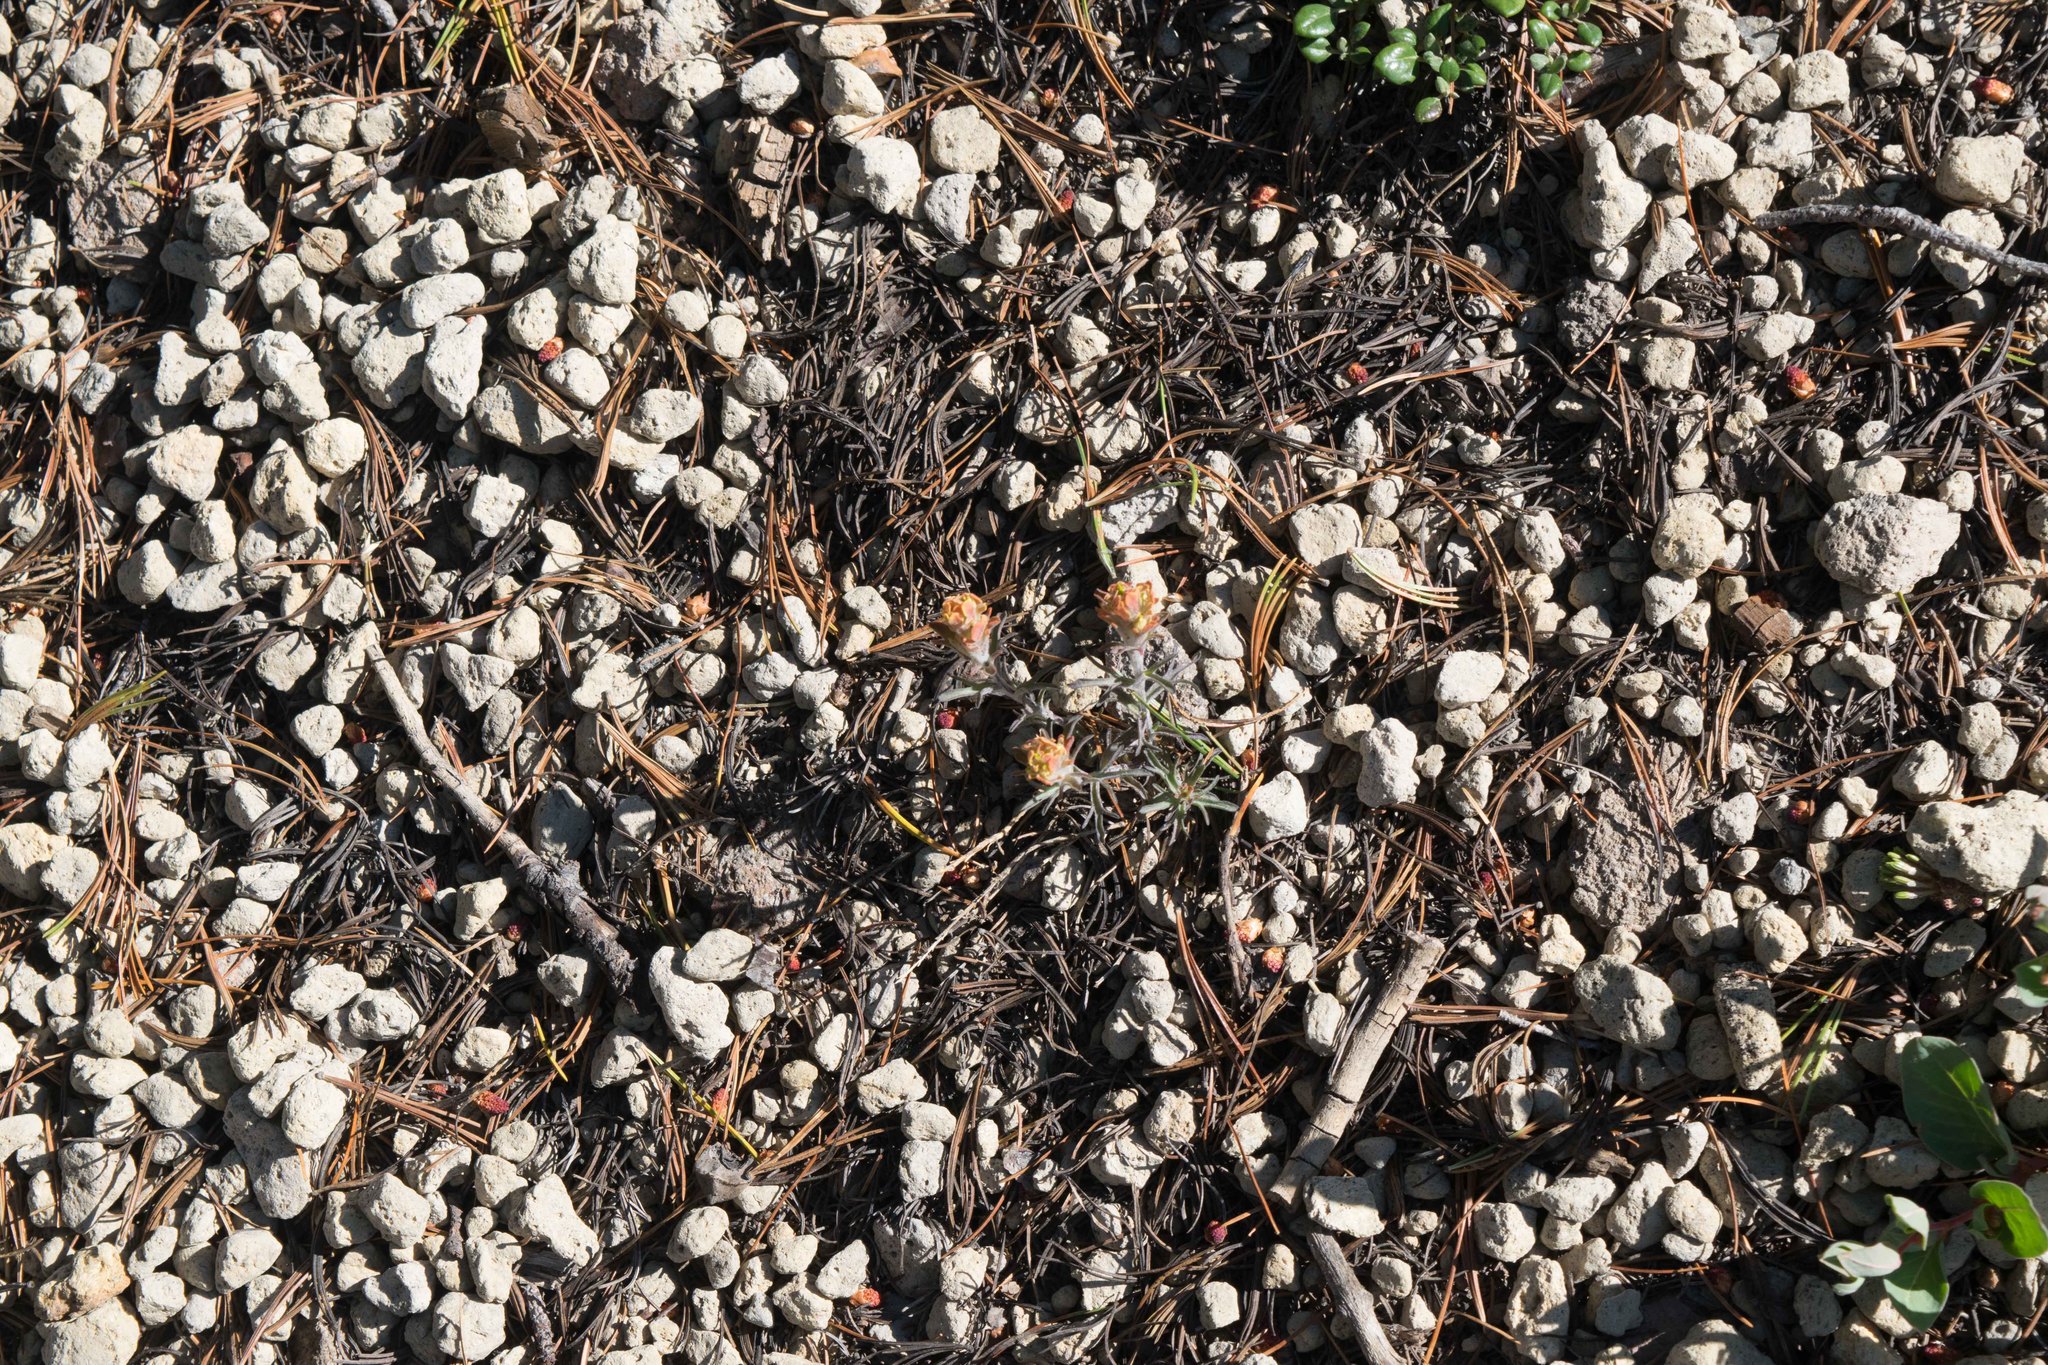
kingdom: Plantae
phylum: Tracheophyta
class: Magnoliopsida
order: Lamiales
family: Orobanchaceae
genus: Castilleja
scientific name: Castilleja arachnoidea
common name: Cobwebby indian paintbrush
